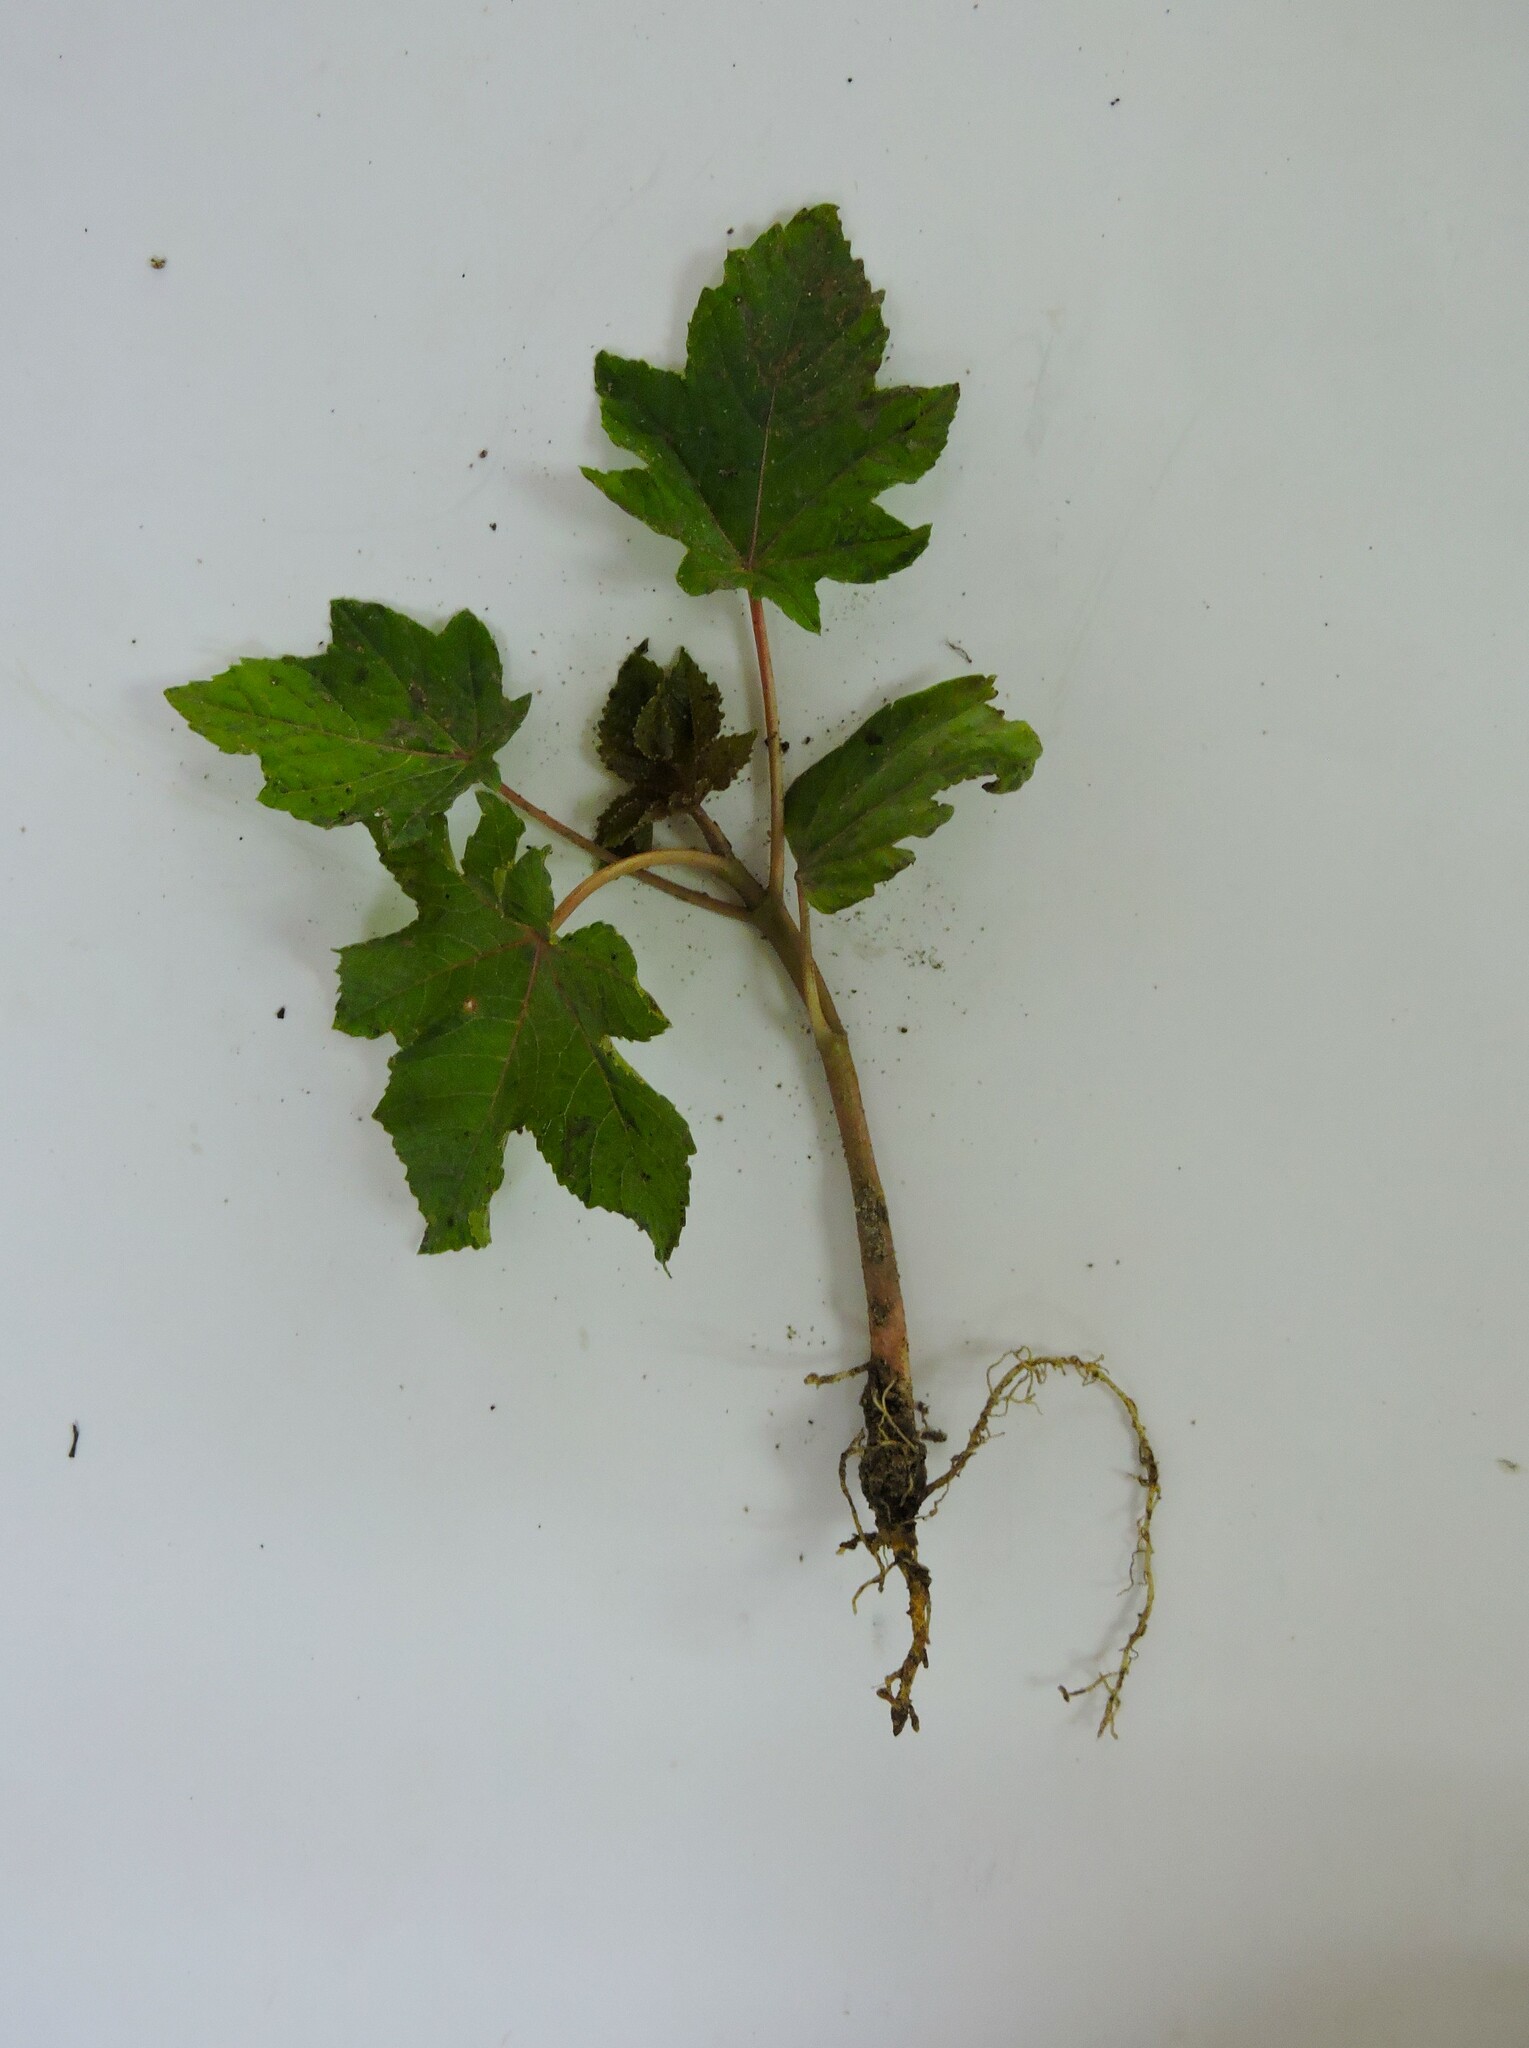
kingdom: Plantae
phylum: Tracheophyta
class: Magnoliopsida
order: Malpighiales
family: Euphorbiaceae
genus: Ricinus
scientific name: Ricinus communis
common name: Castor-oil-plant
